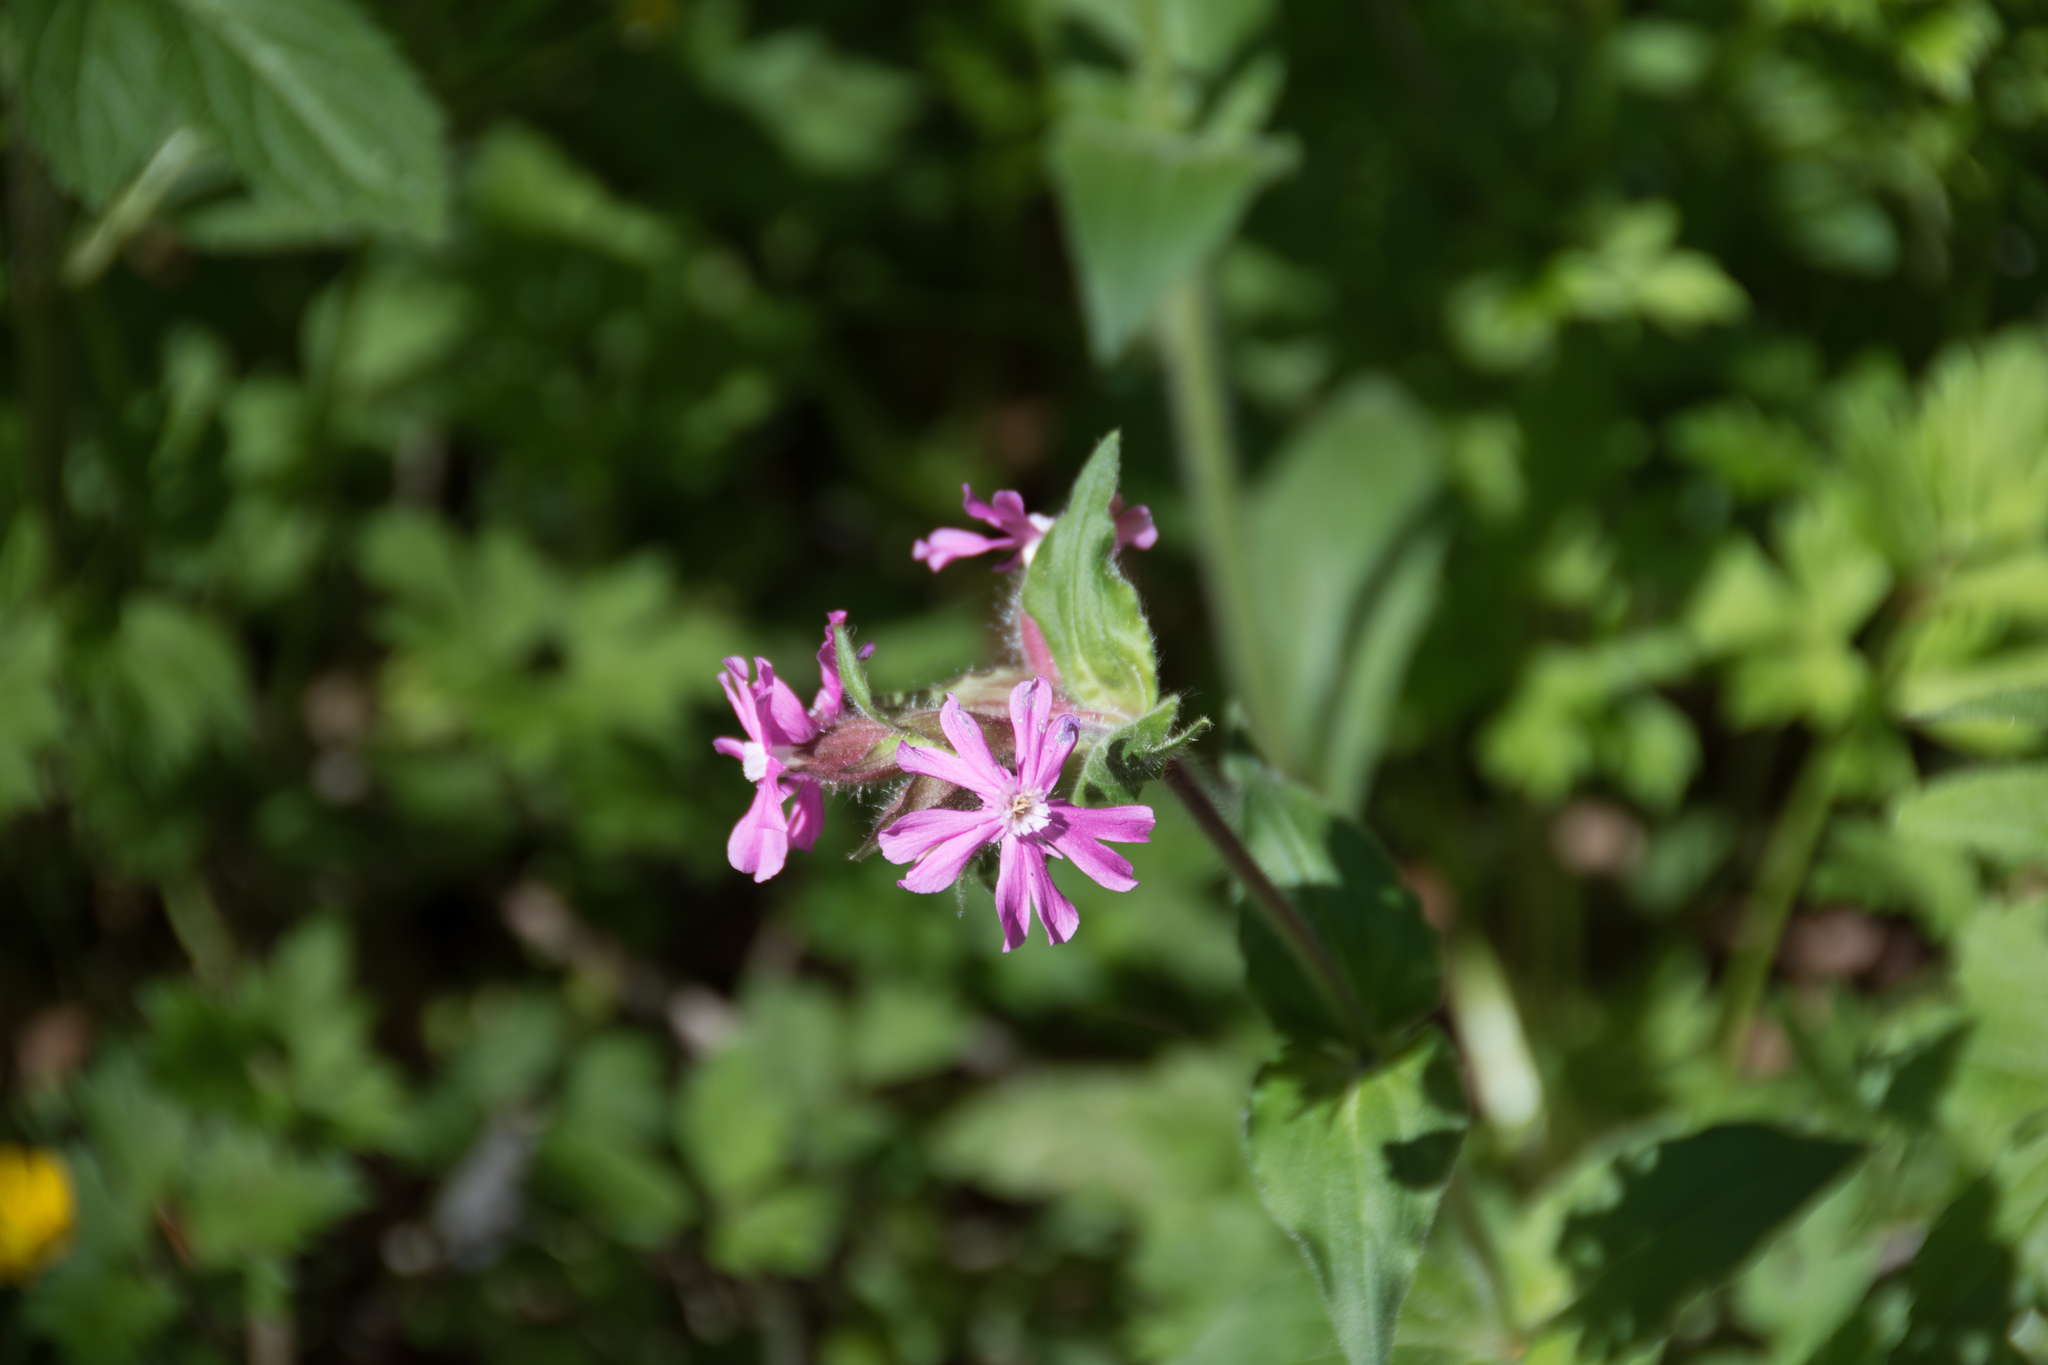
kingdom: Plantae
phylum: Tracheophyta
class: Magnoliopsida
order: Caryophyllales
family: Caryophyllaceae
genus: Silene
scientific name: Silene dioica
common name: Red campion
